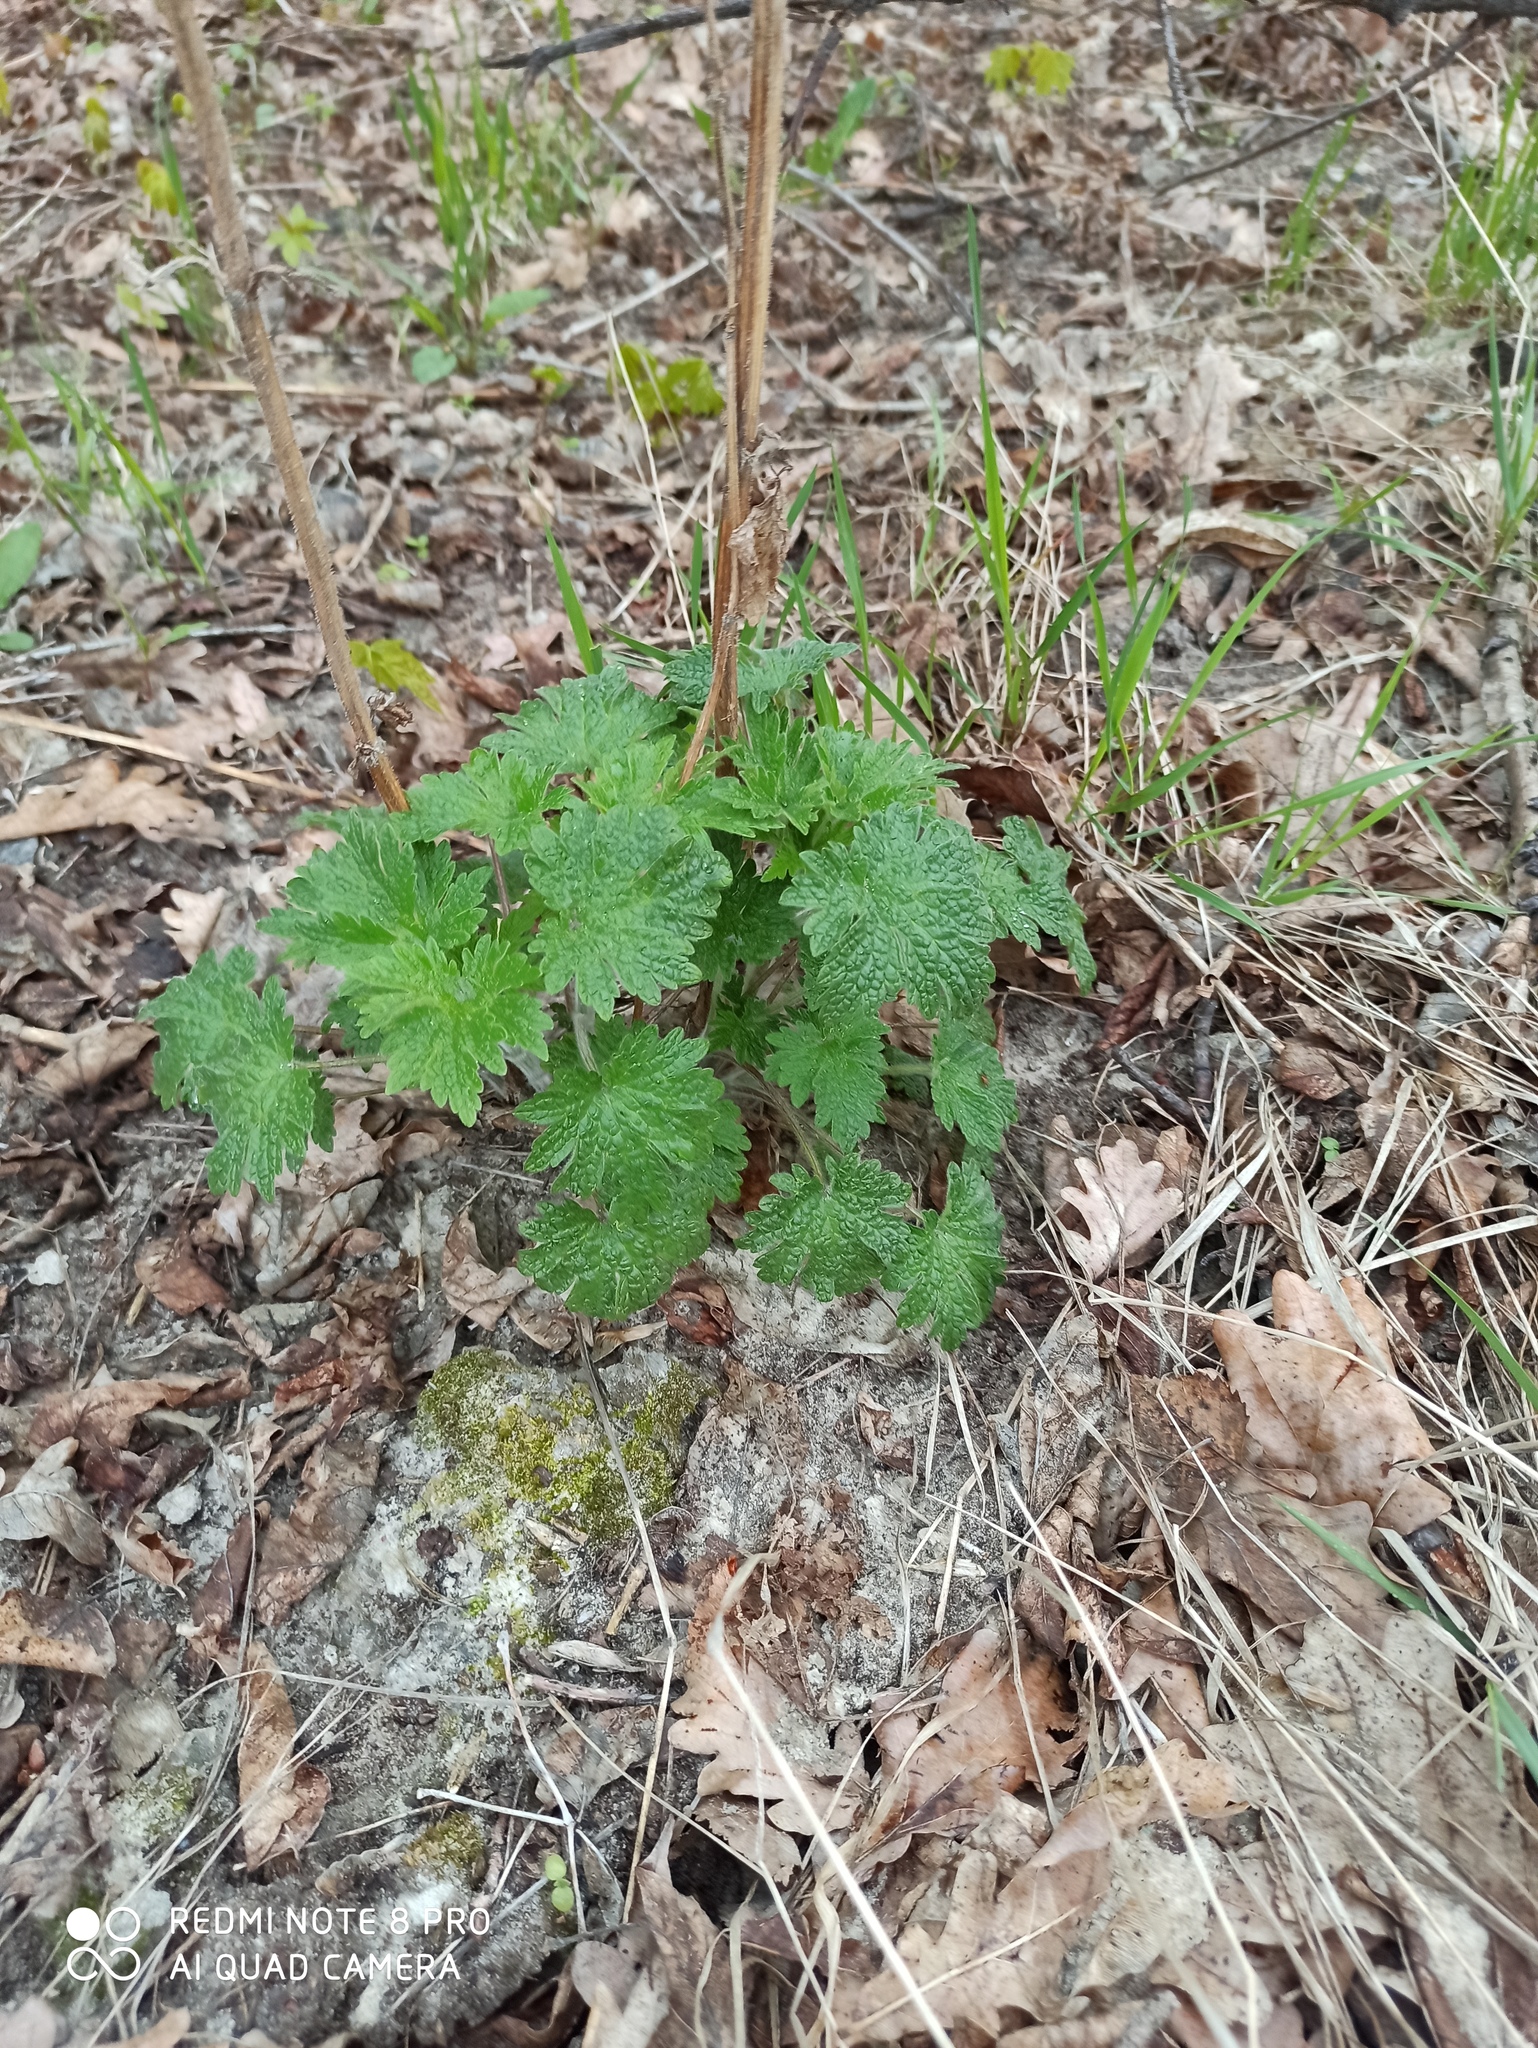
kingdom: Plantae
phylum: Tracheophyta
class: Magnoliopsida
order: Lamiales
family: Lamiaceae
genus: Leonurus
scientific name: Leonurus quinquelobatus
